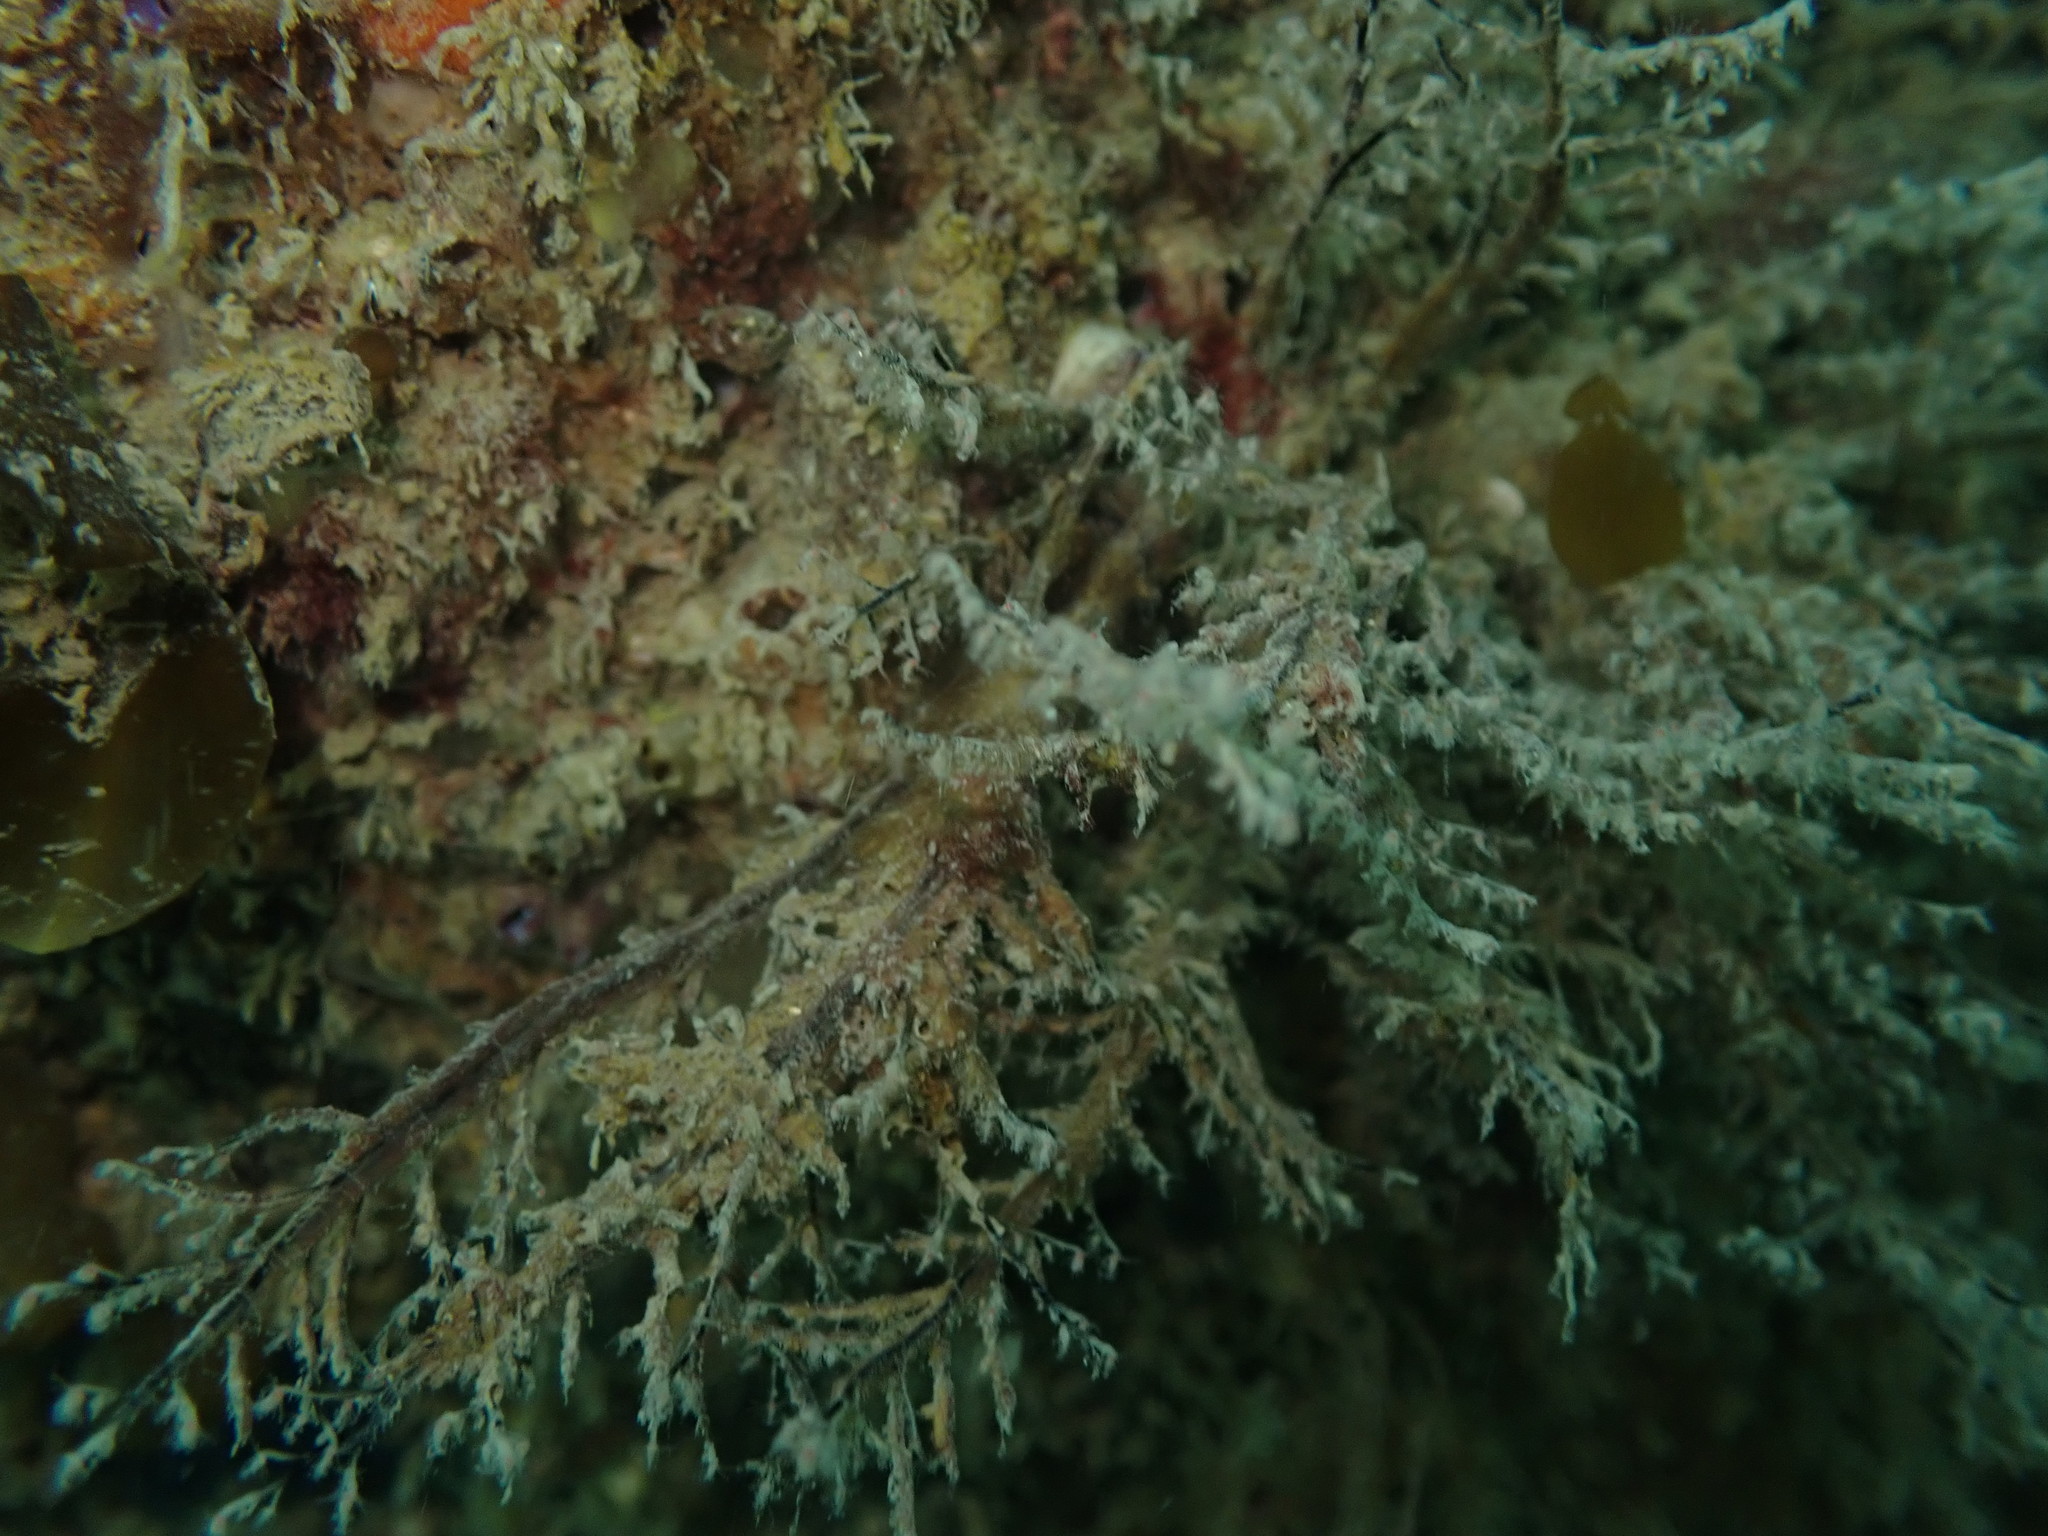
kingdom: Animalia
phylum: Cnidaria
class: Hydrozoa
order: Anthoathecata
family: Pennariidae
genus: Pennaria
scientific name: Pennaria disticha
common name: Feather hydroid
